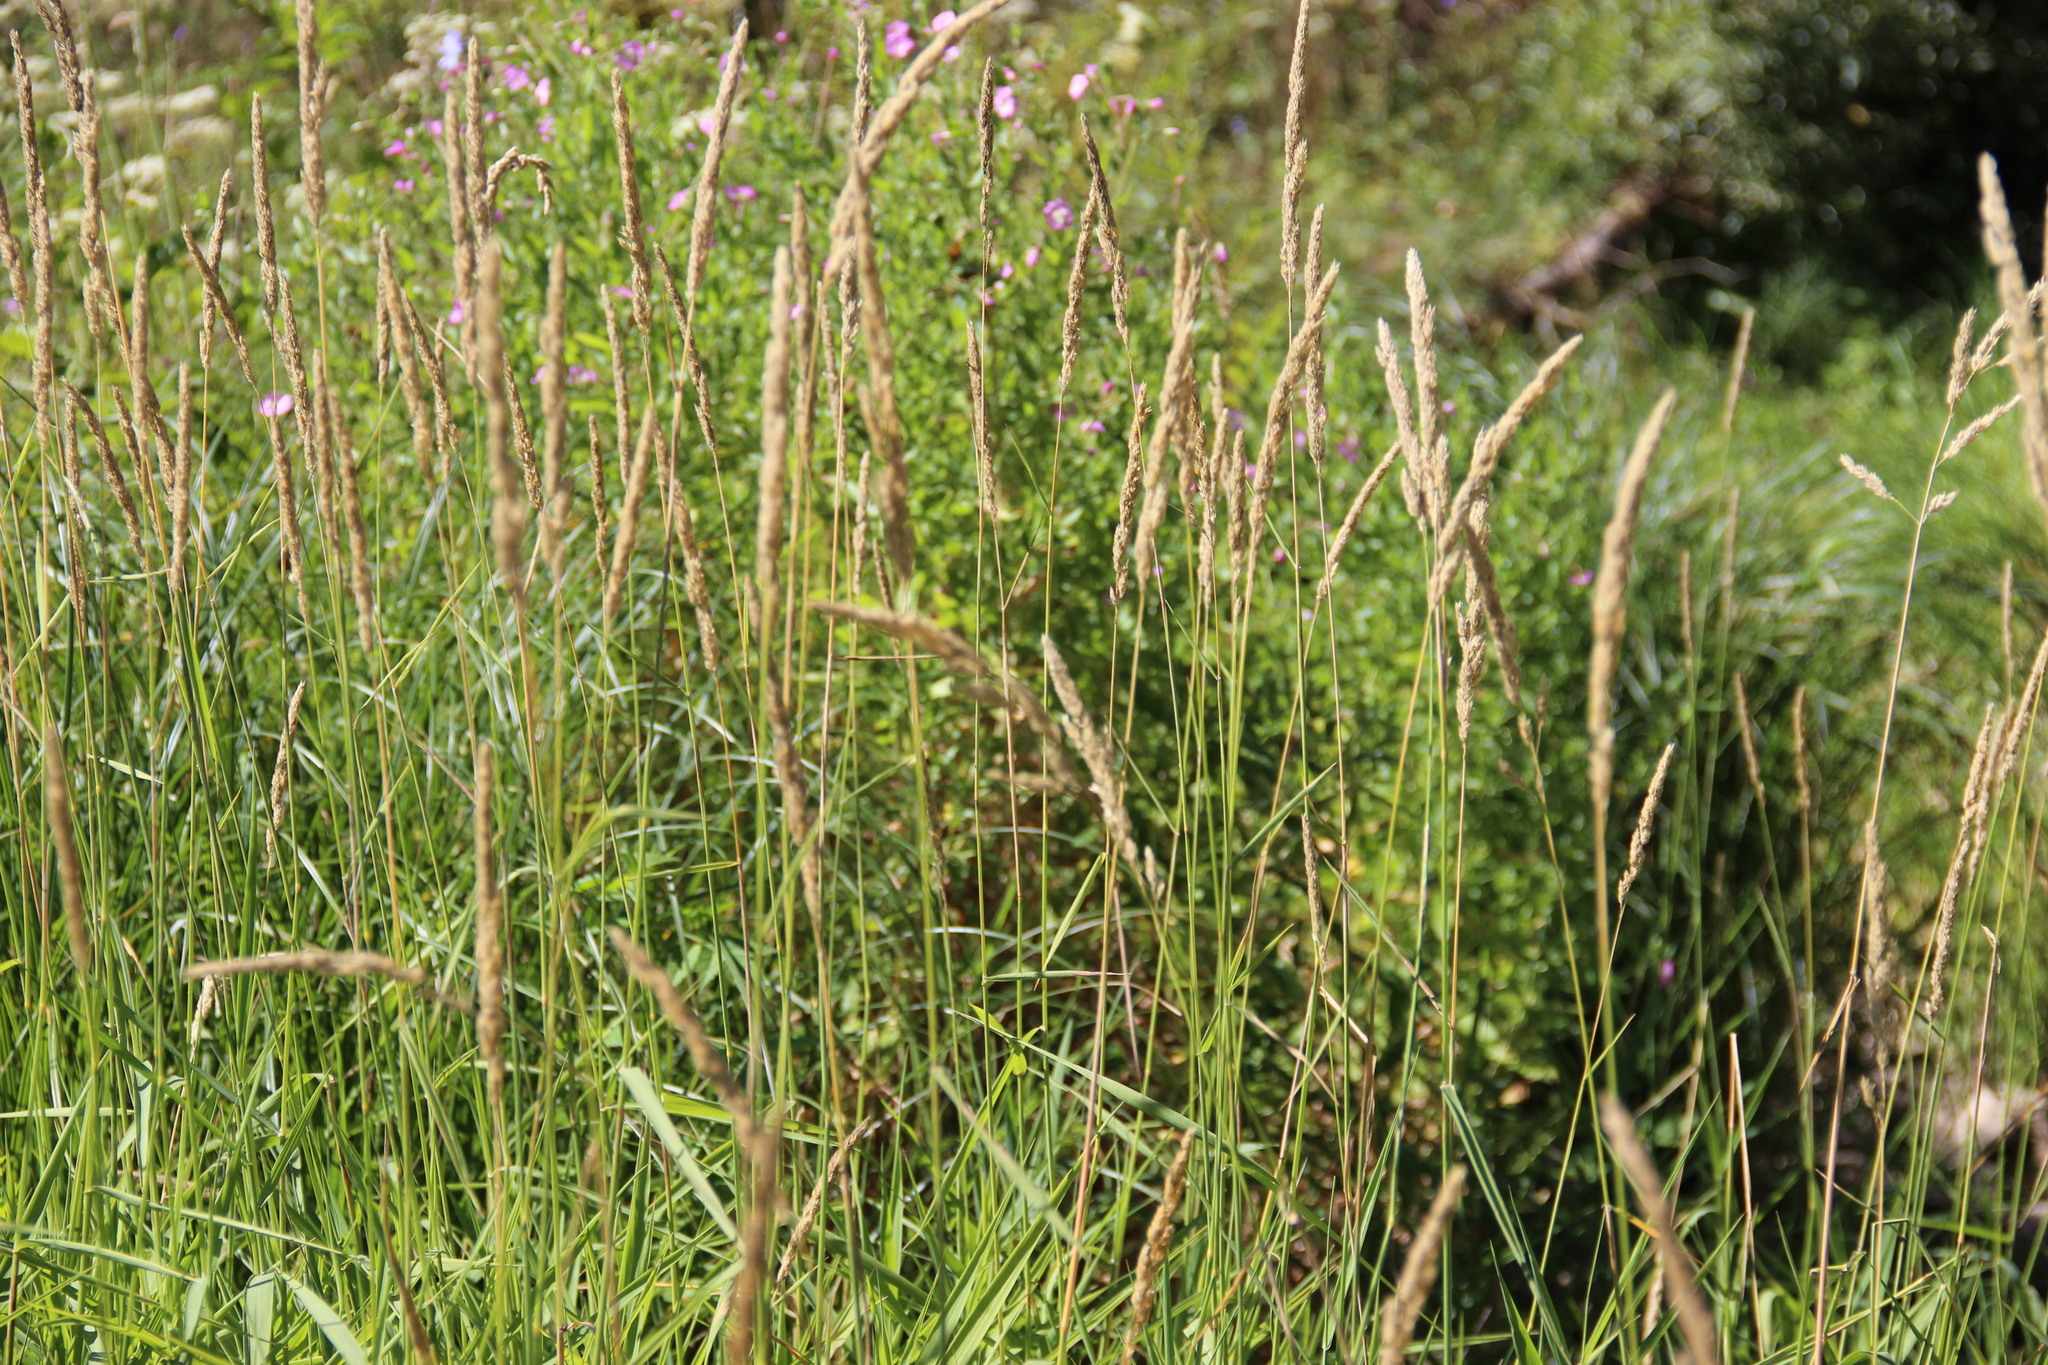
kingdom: Plantae
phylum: Tracheophyta
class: Liliopsida
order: Poales
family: Poaceae
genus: Phalaris
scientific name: Phalaris arundinacea
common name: Reed canary-grass
